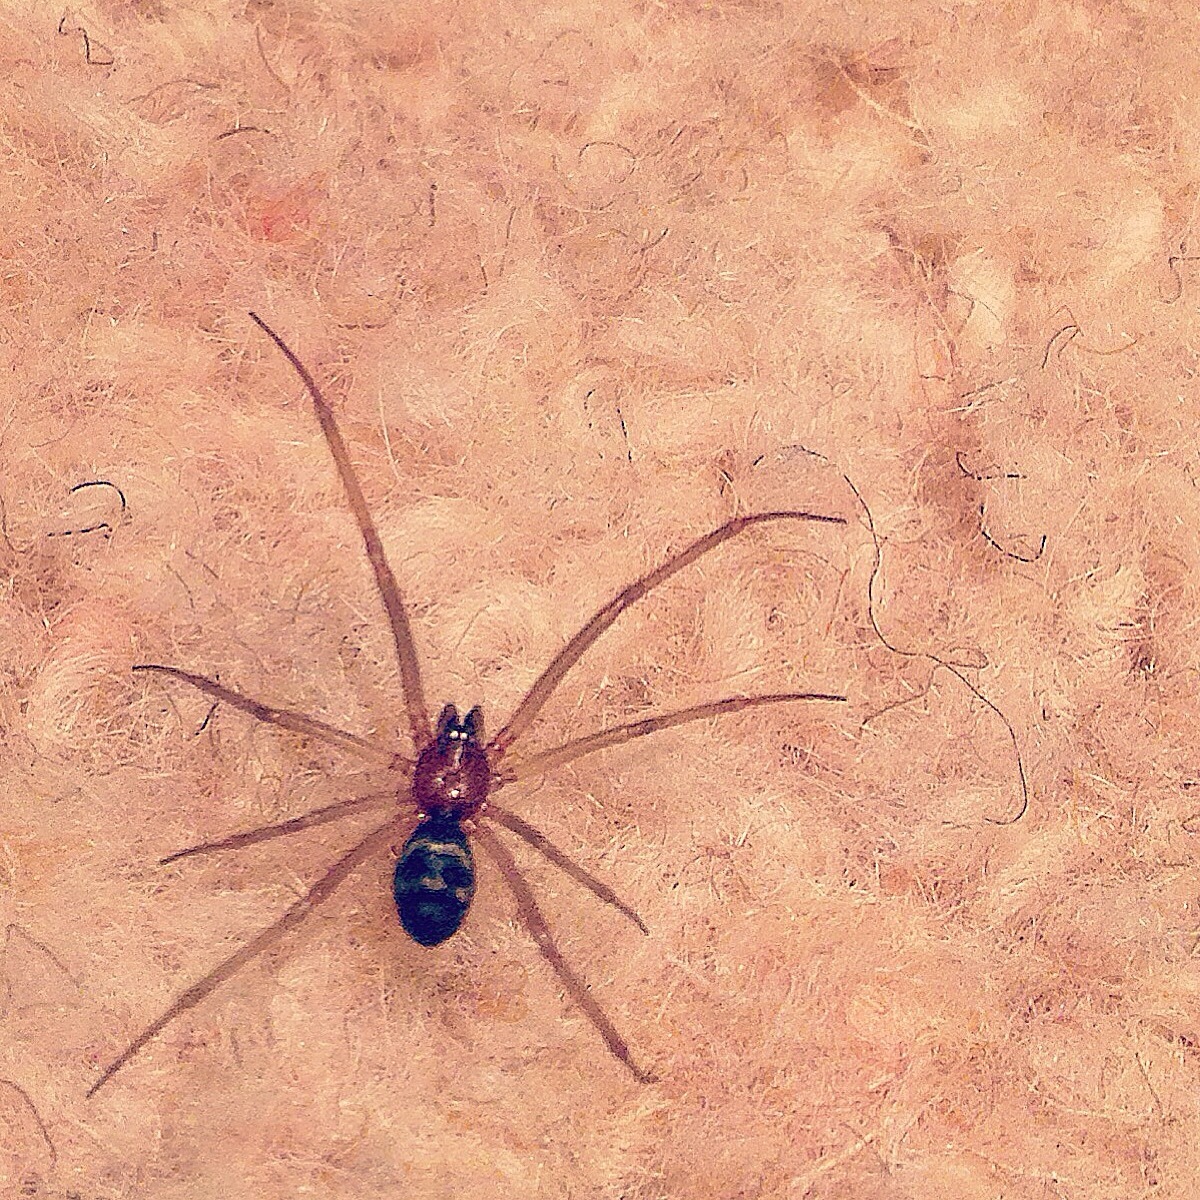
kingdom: Animalia
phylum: Arthropoda
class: Arachnida
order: Araneae
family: Theridiidae
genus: Steatoda
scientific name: Steatoda grossa
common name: False black widow
